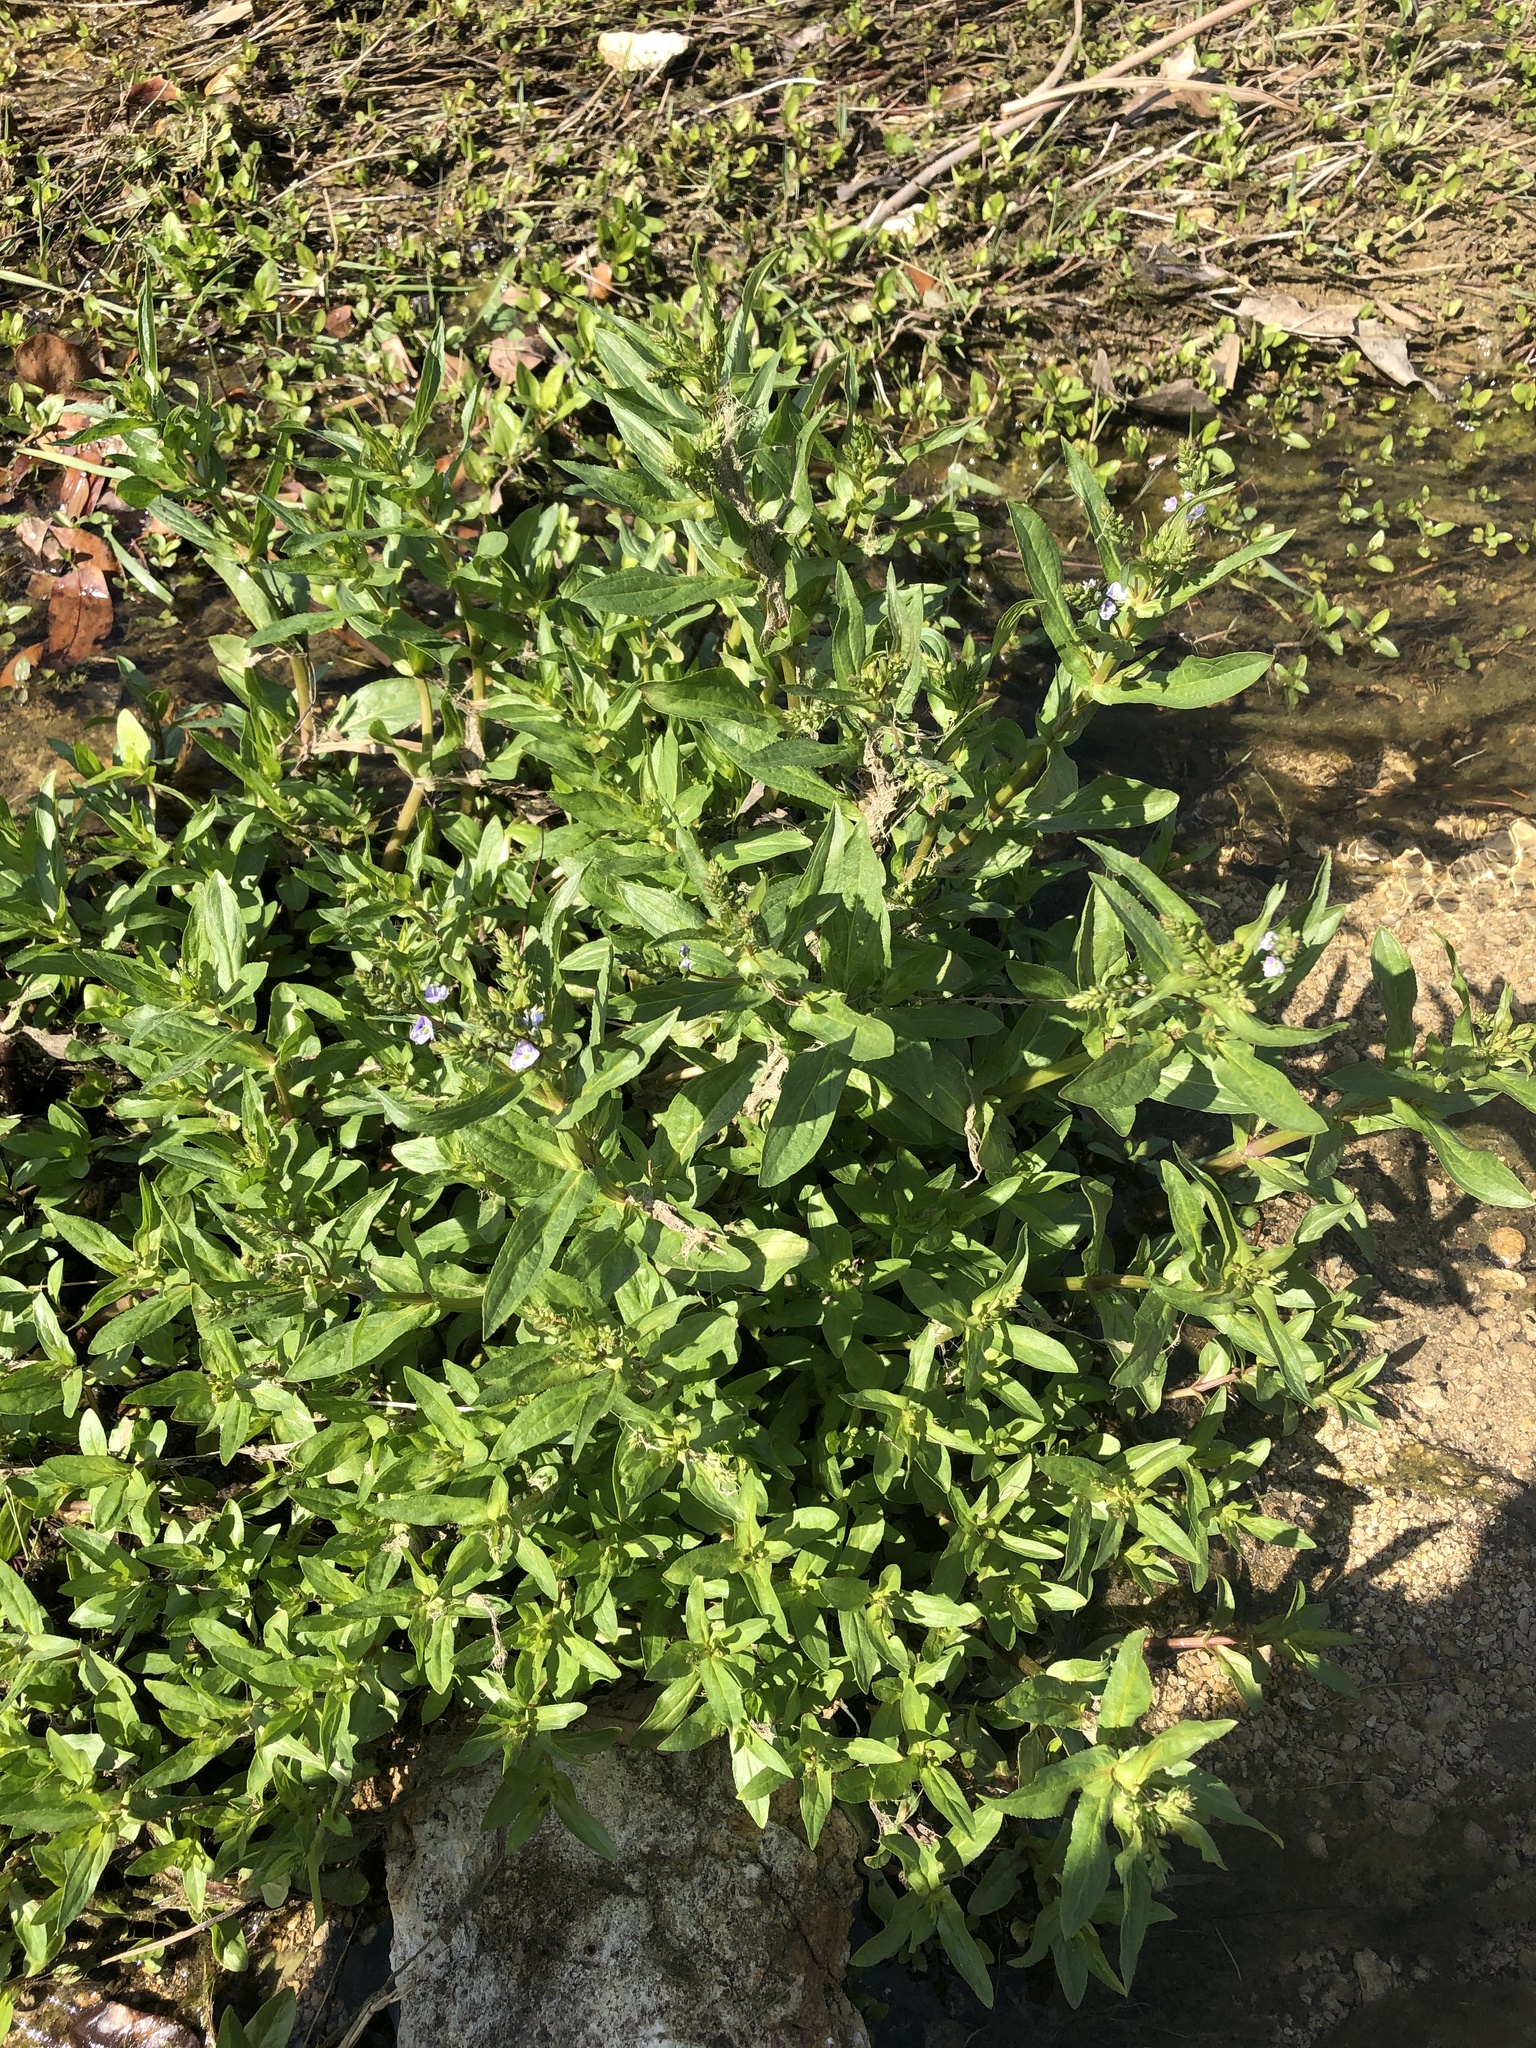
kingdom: Plantae
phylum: Tracheophyta
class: Magnoliopsida
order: Lamiales
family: Plantaginaceae
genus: Veronica
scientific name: Veronica anagallis-aquatica
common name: Water speedwell
